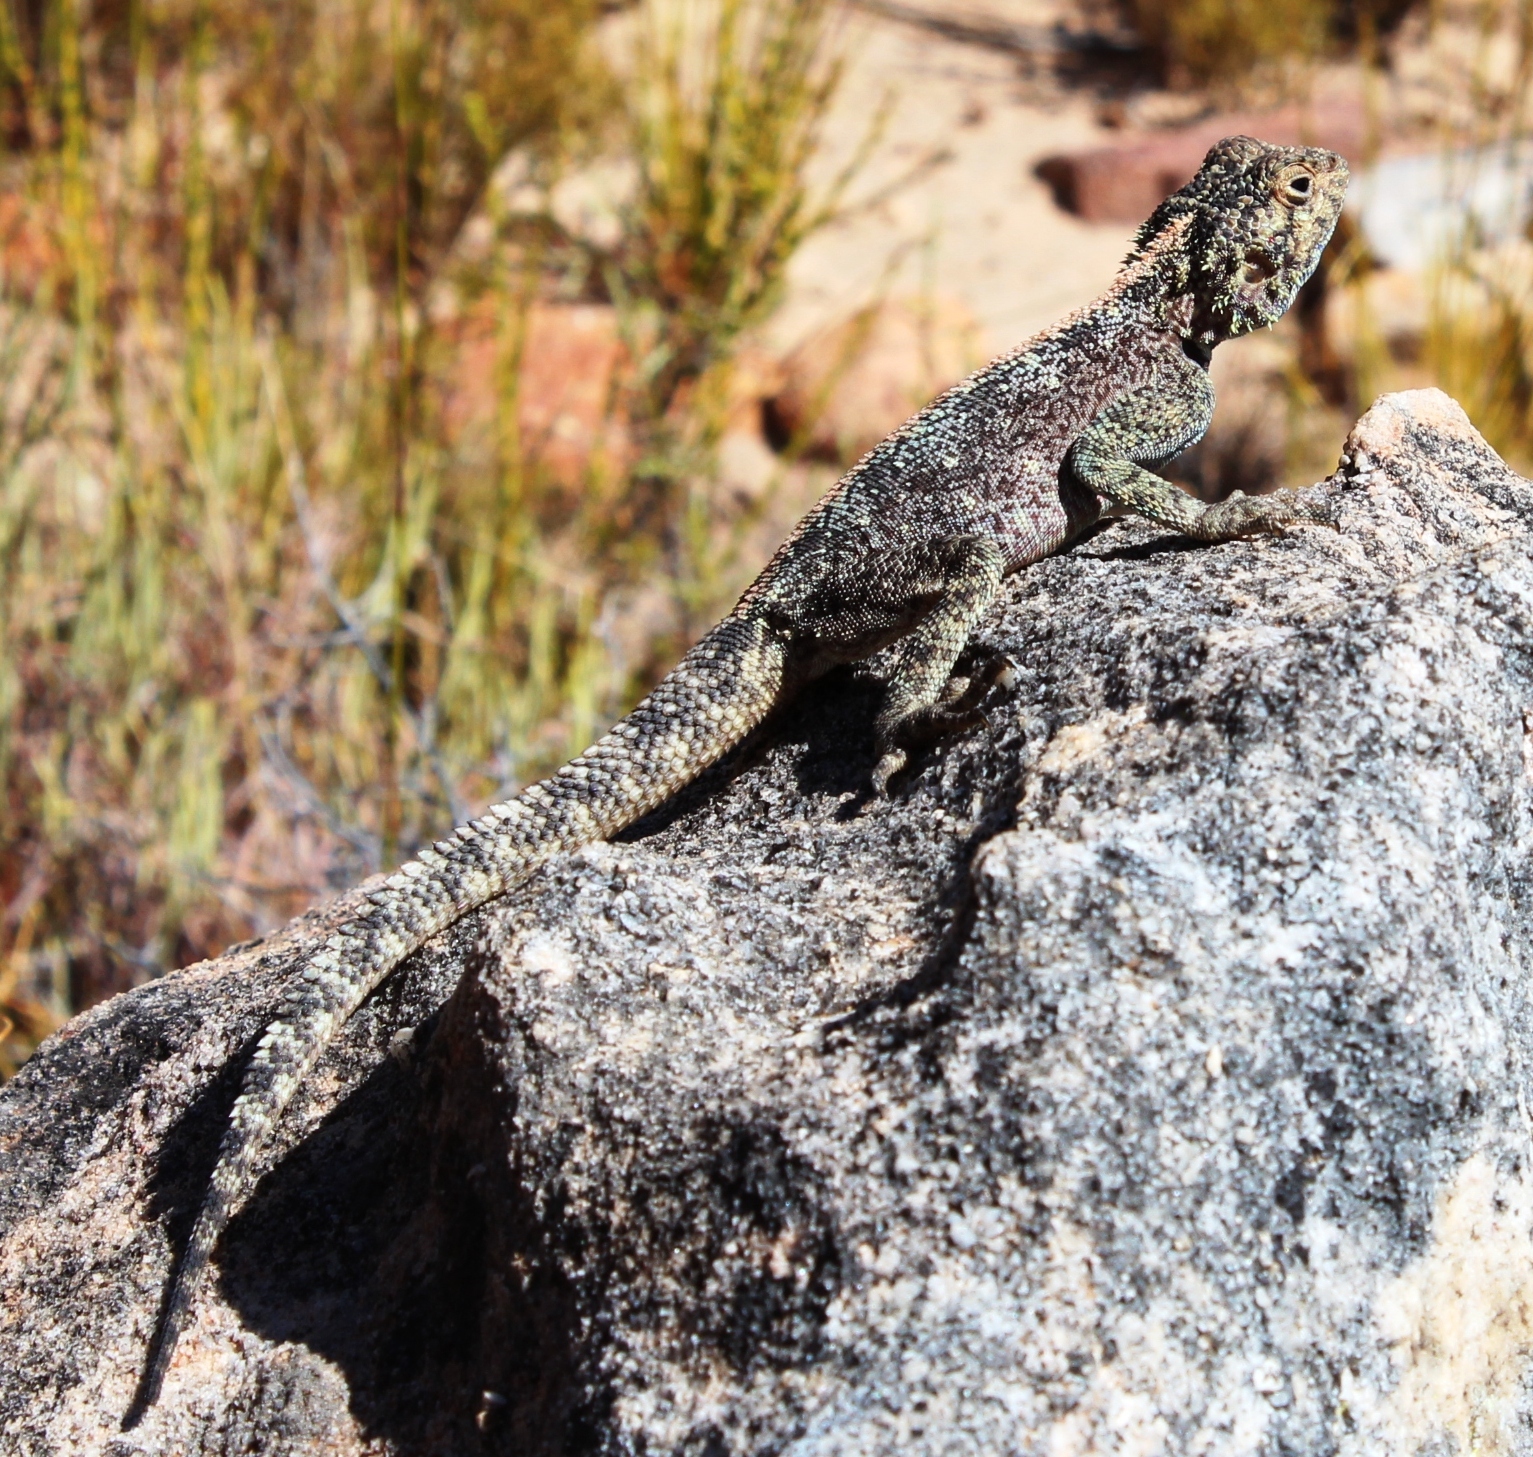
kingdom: Animalia
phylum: Chordata
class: Squamata
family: Agamidae
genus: Agama
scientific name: Agama atra
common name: Southern african rock agama
